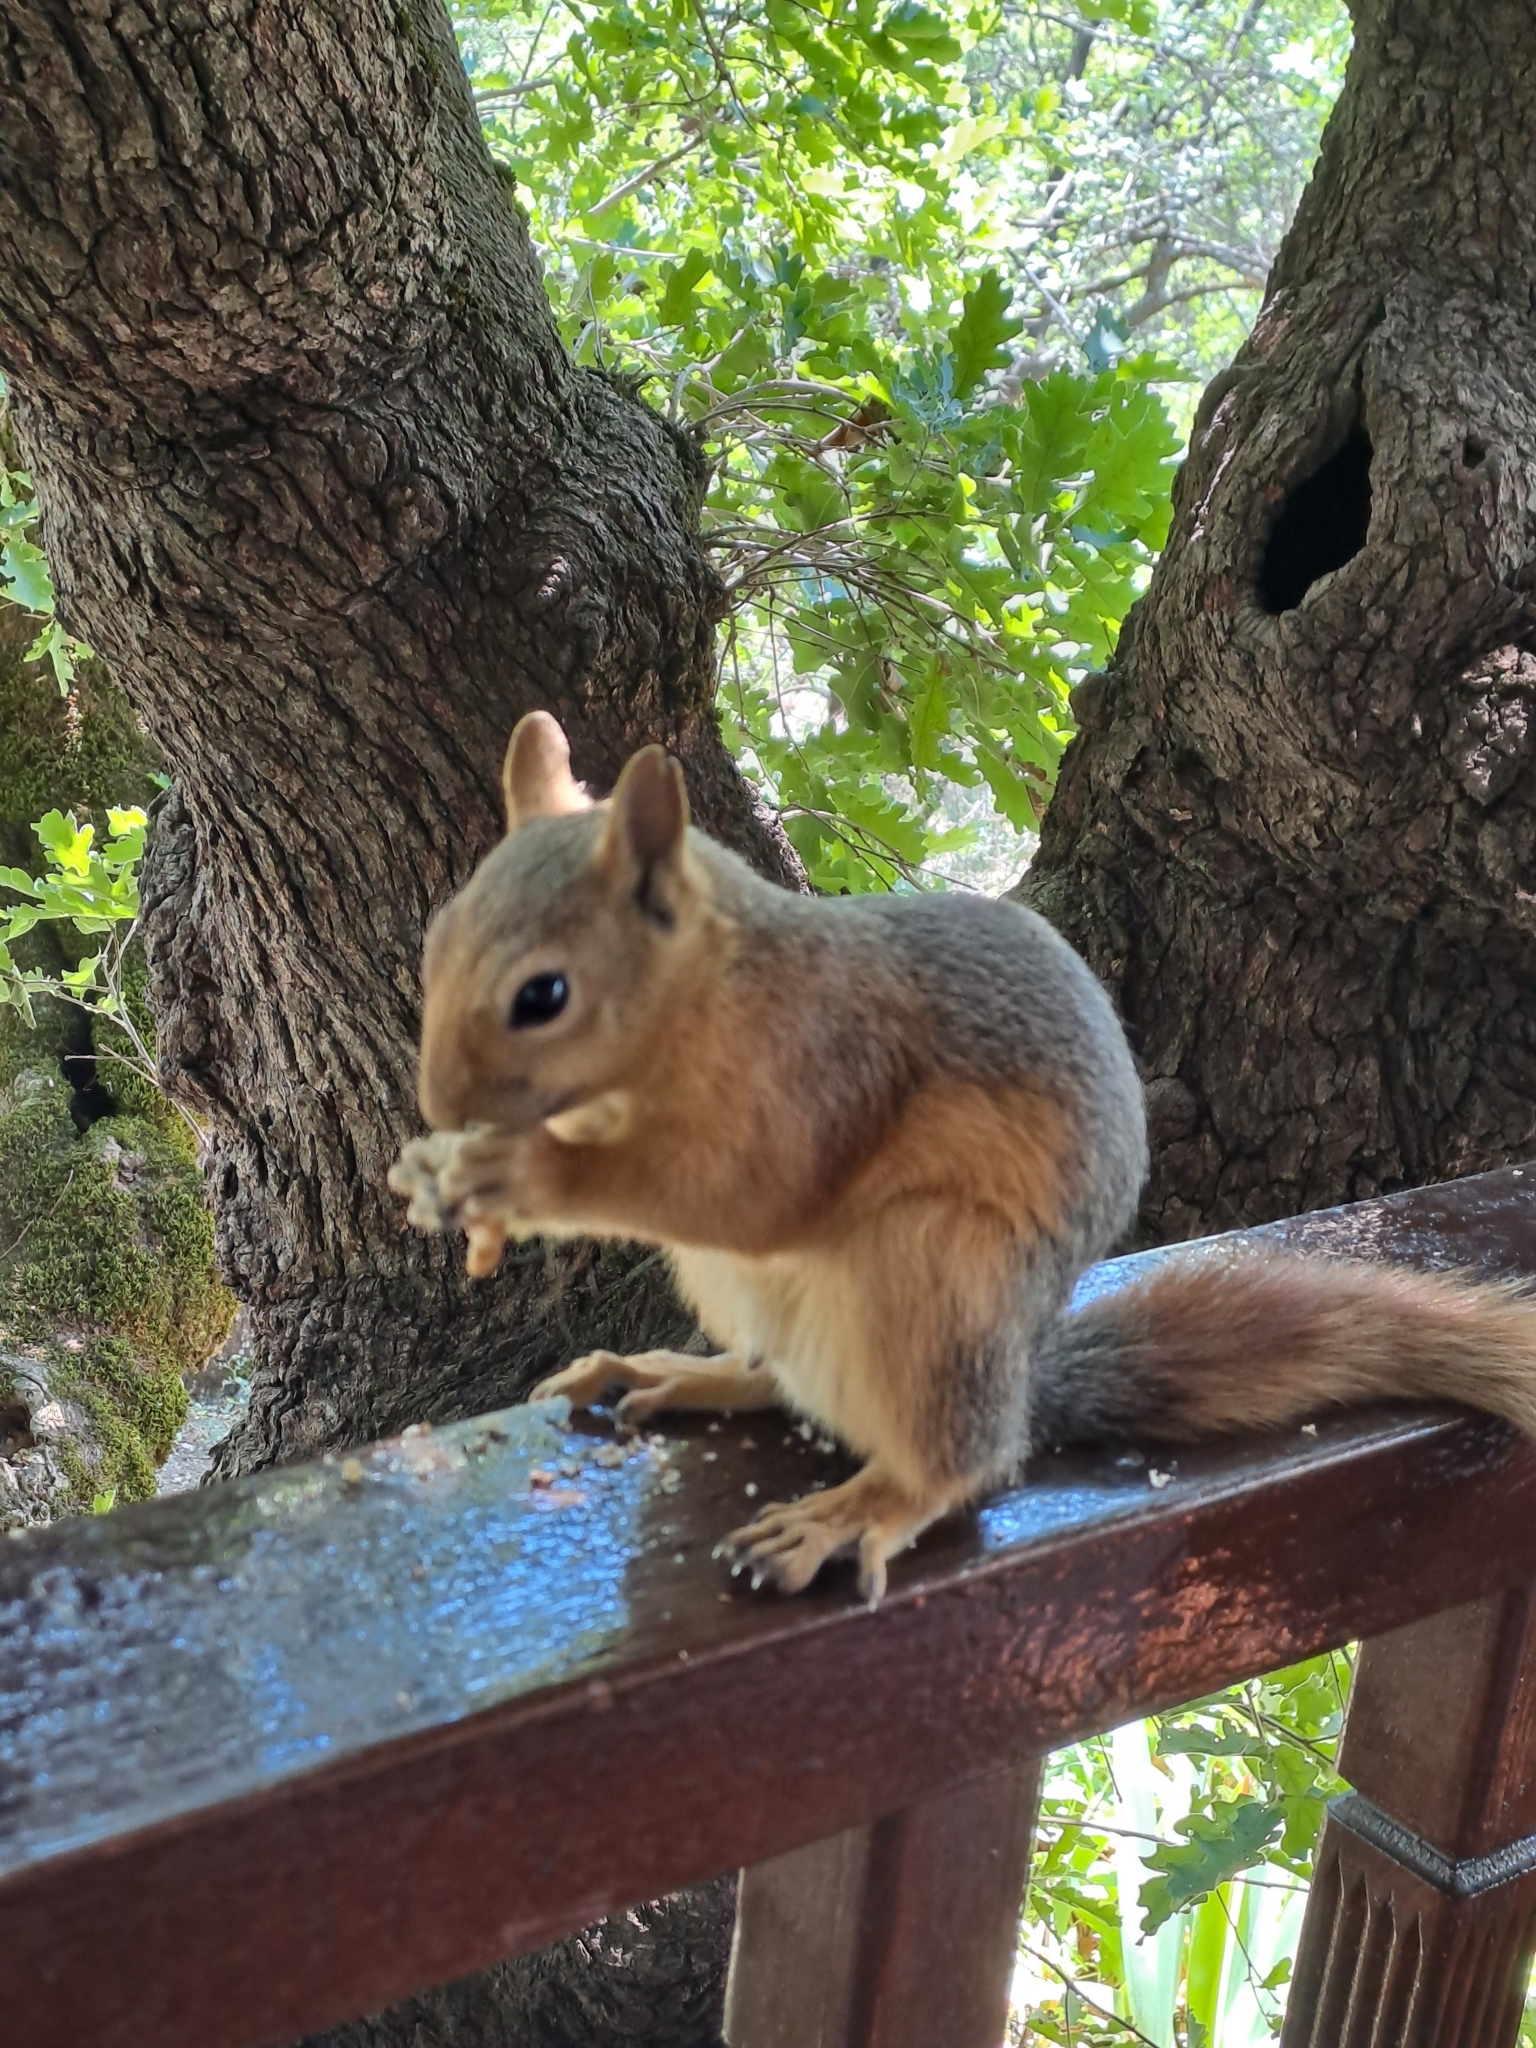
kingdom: Animalia
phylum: Chordata
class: Mammalia
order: Rodentia
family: Sciuridae
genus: Sciurus
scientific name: Sciurus anomalus
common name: Caucasian squirrel
